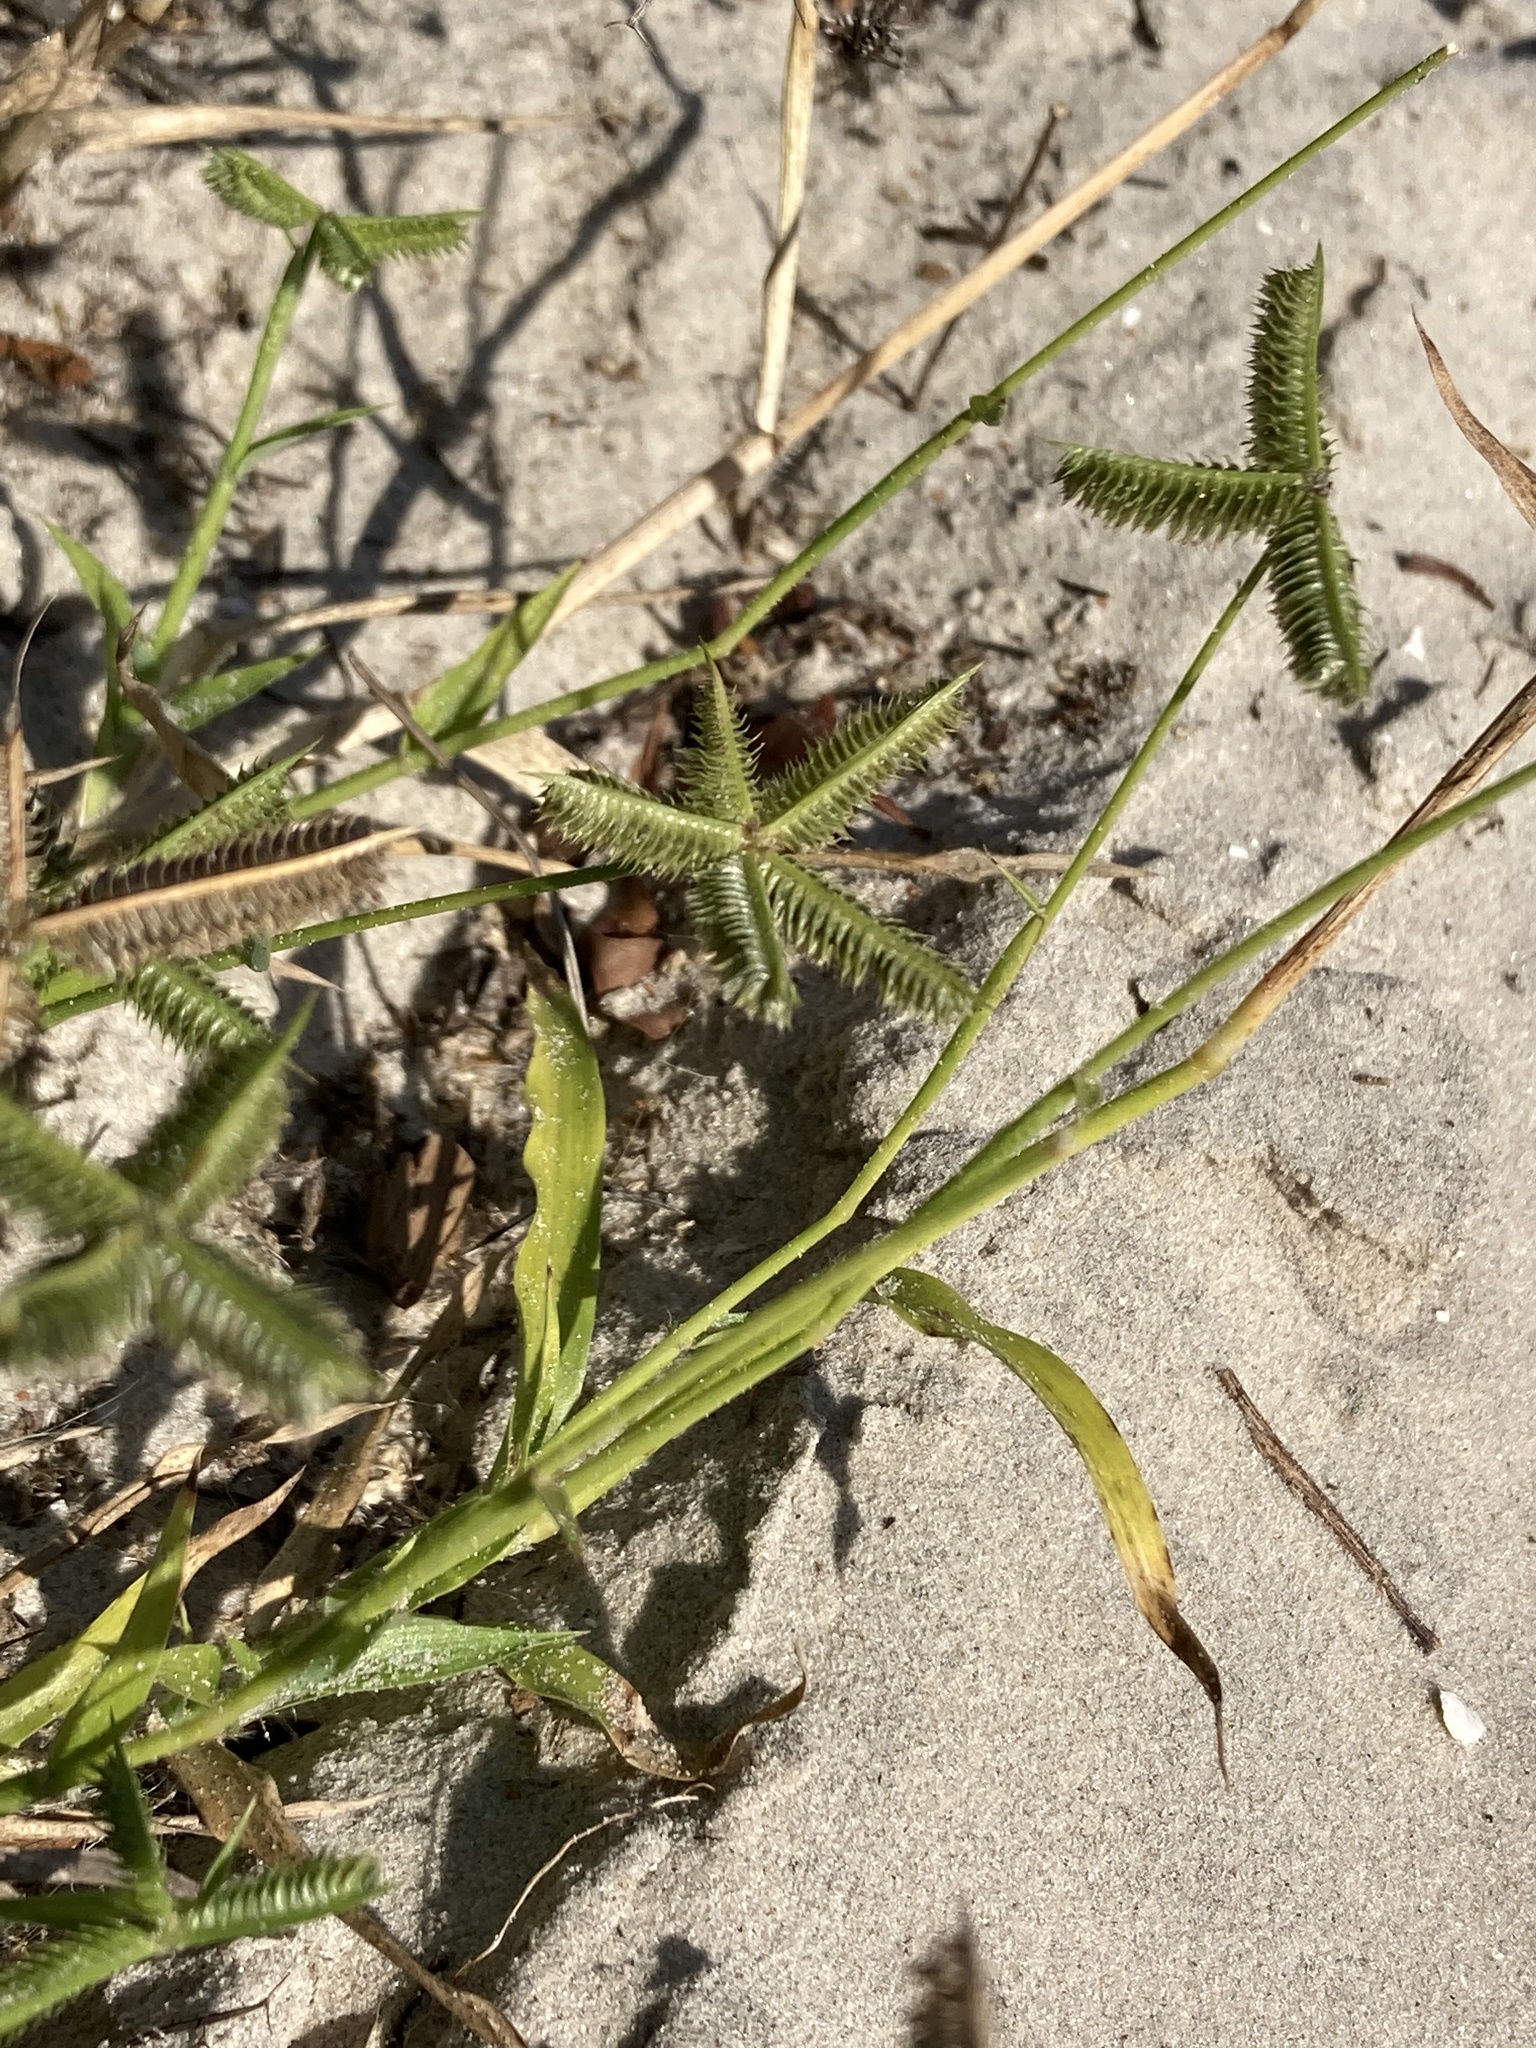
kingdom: Plantae
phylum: Tracheophyta
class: Liliopsida
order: Poales
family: Poaceae
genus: Dactyloctenium
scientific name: Dactyloctenium aegyptium
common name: Egyptian grass
